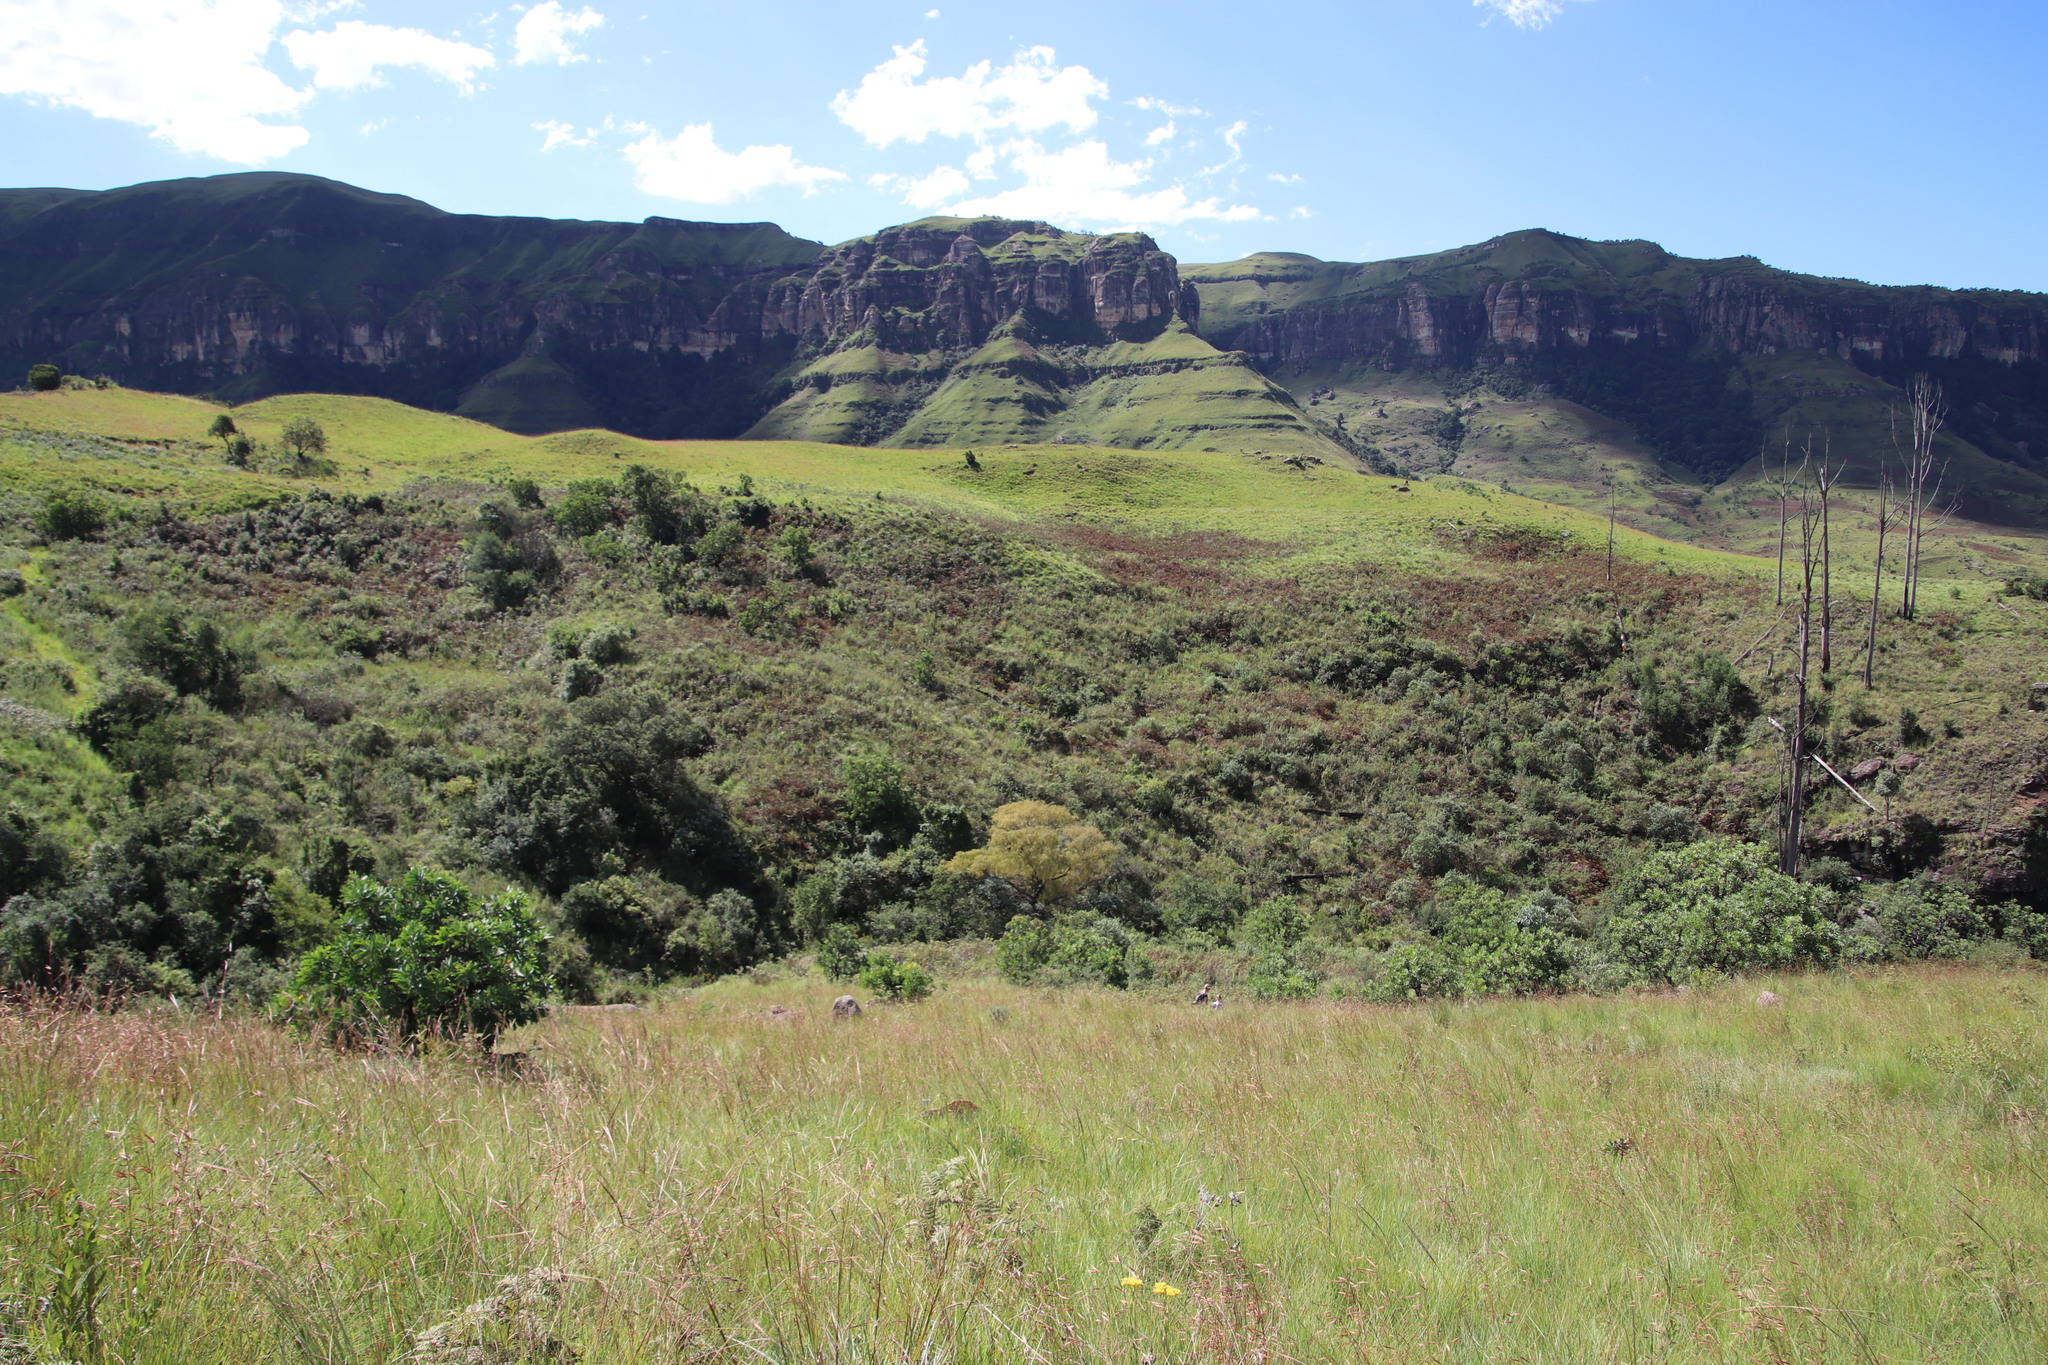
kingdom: Plantae
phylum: Tracheophyta
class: Polypodiopsida
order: Polypodiales
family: Dennstaedtiaceae
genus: Pteridium
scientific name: Pteridium aquilinum
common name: Bracken
